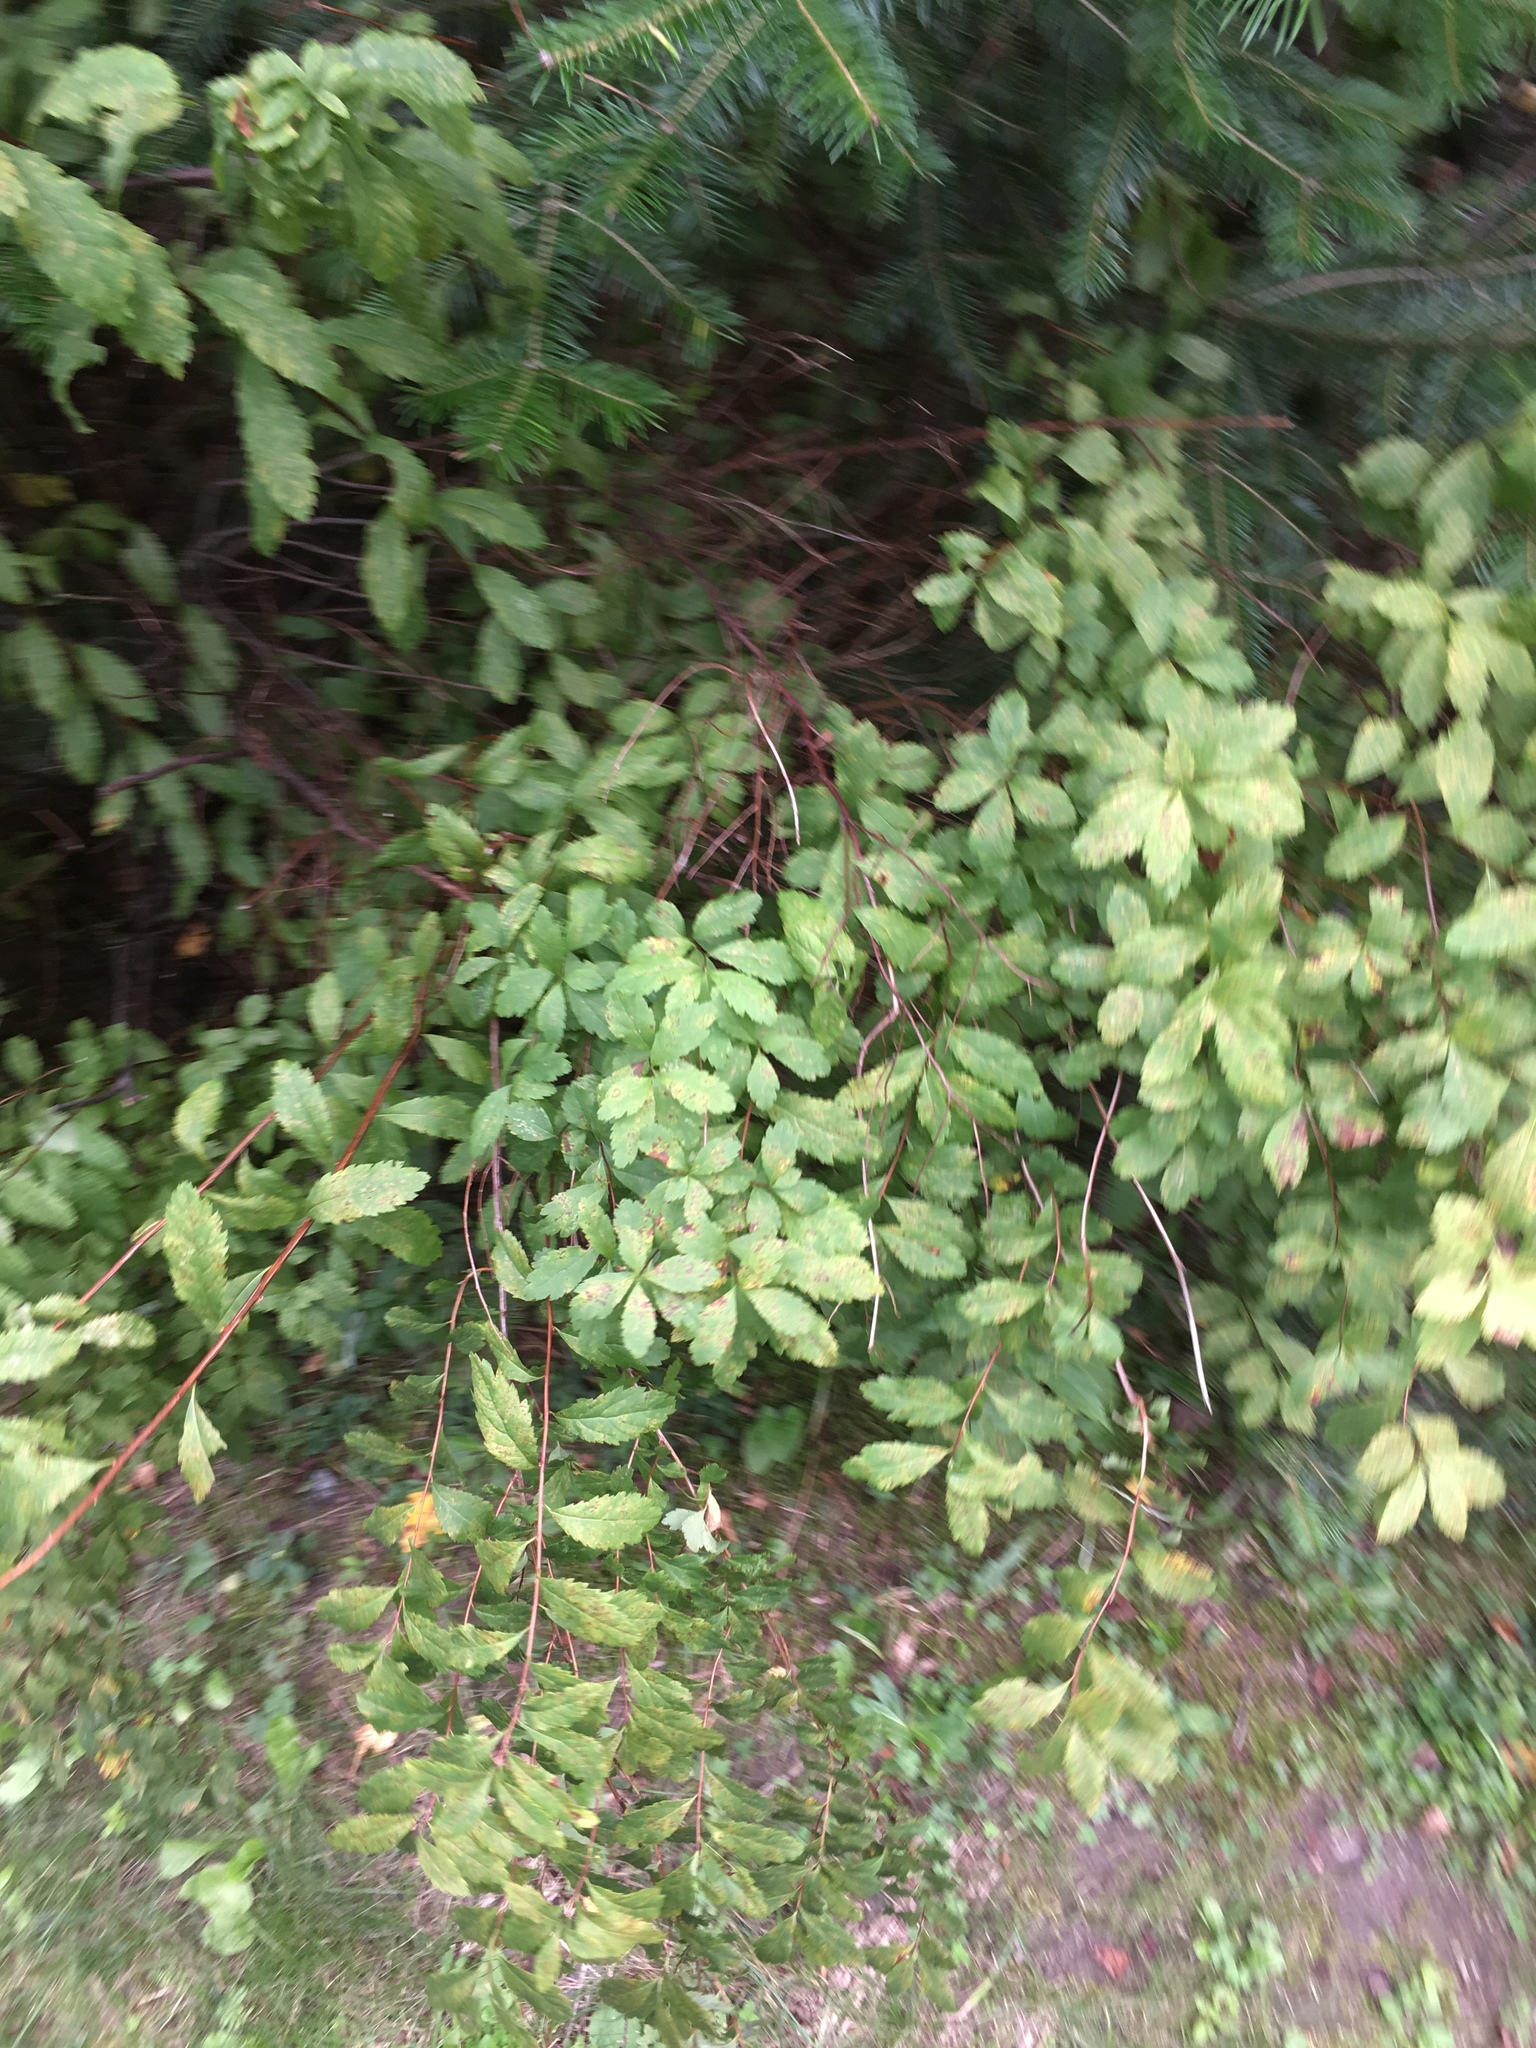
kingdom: Plantae
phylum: Tracheophyta
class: Magnoliopsida
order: Rosales
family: Rosaceae
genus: Spiraea
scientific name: Spiraea alba
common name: Pale bridewort
